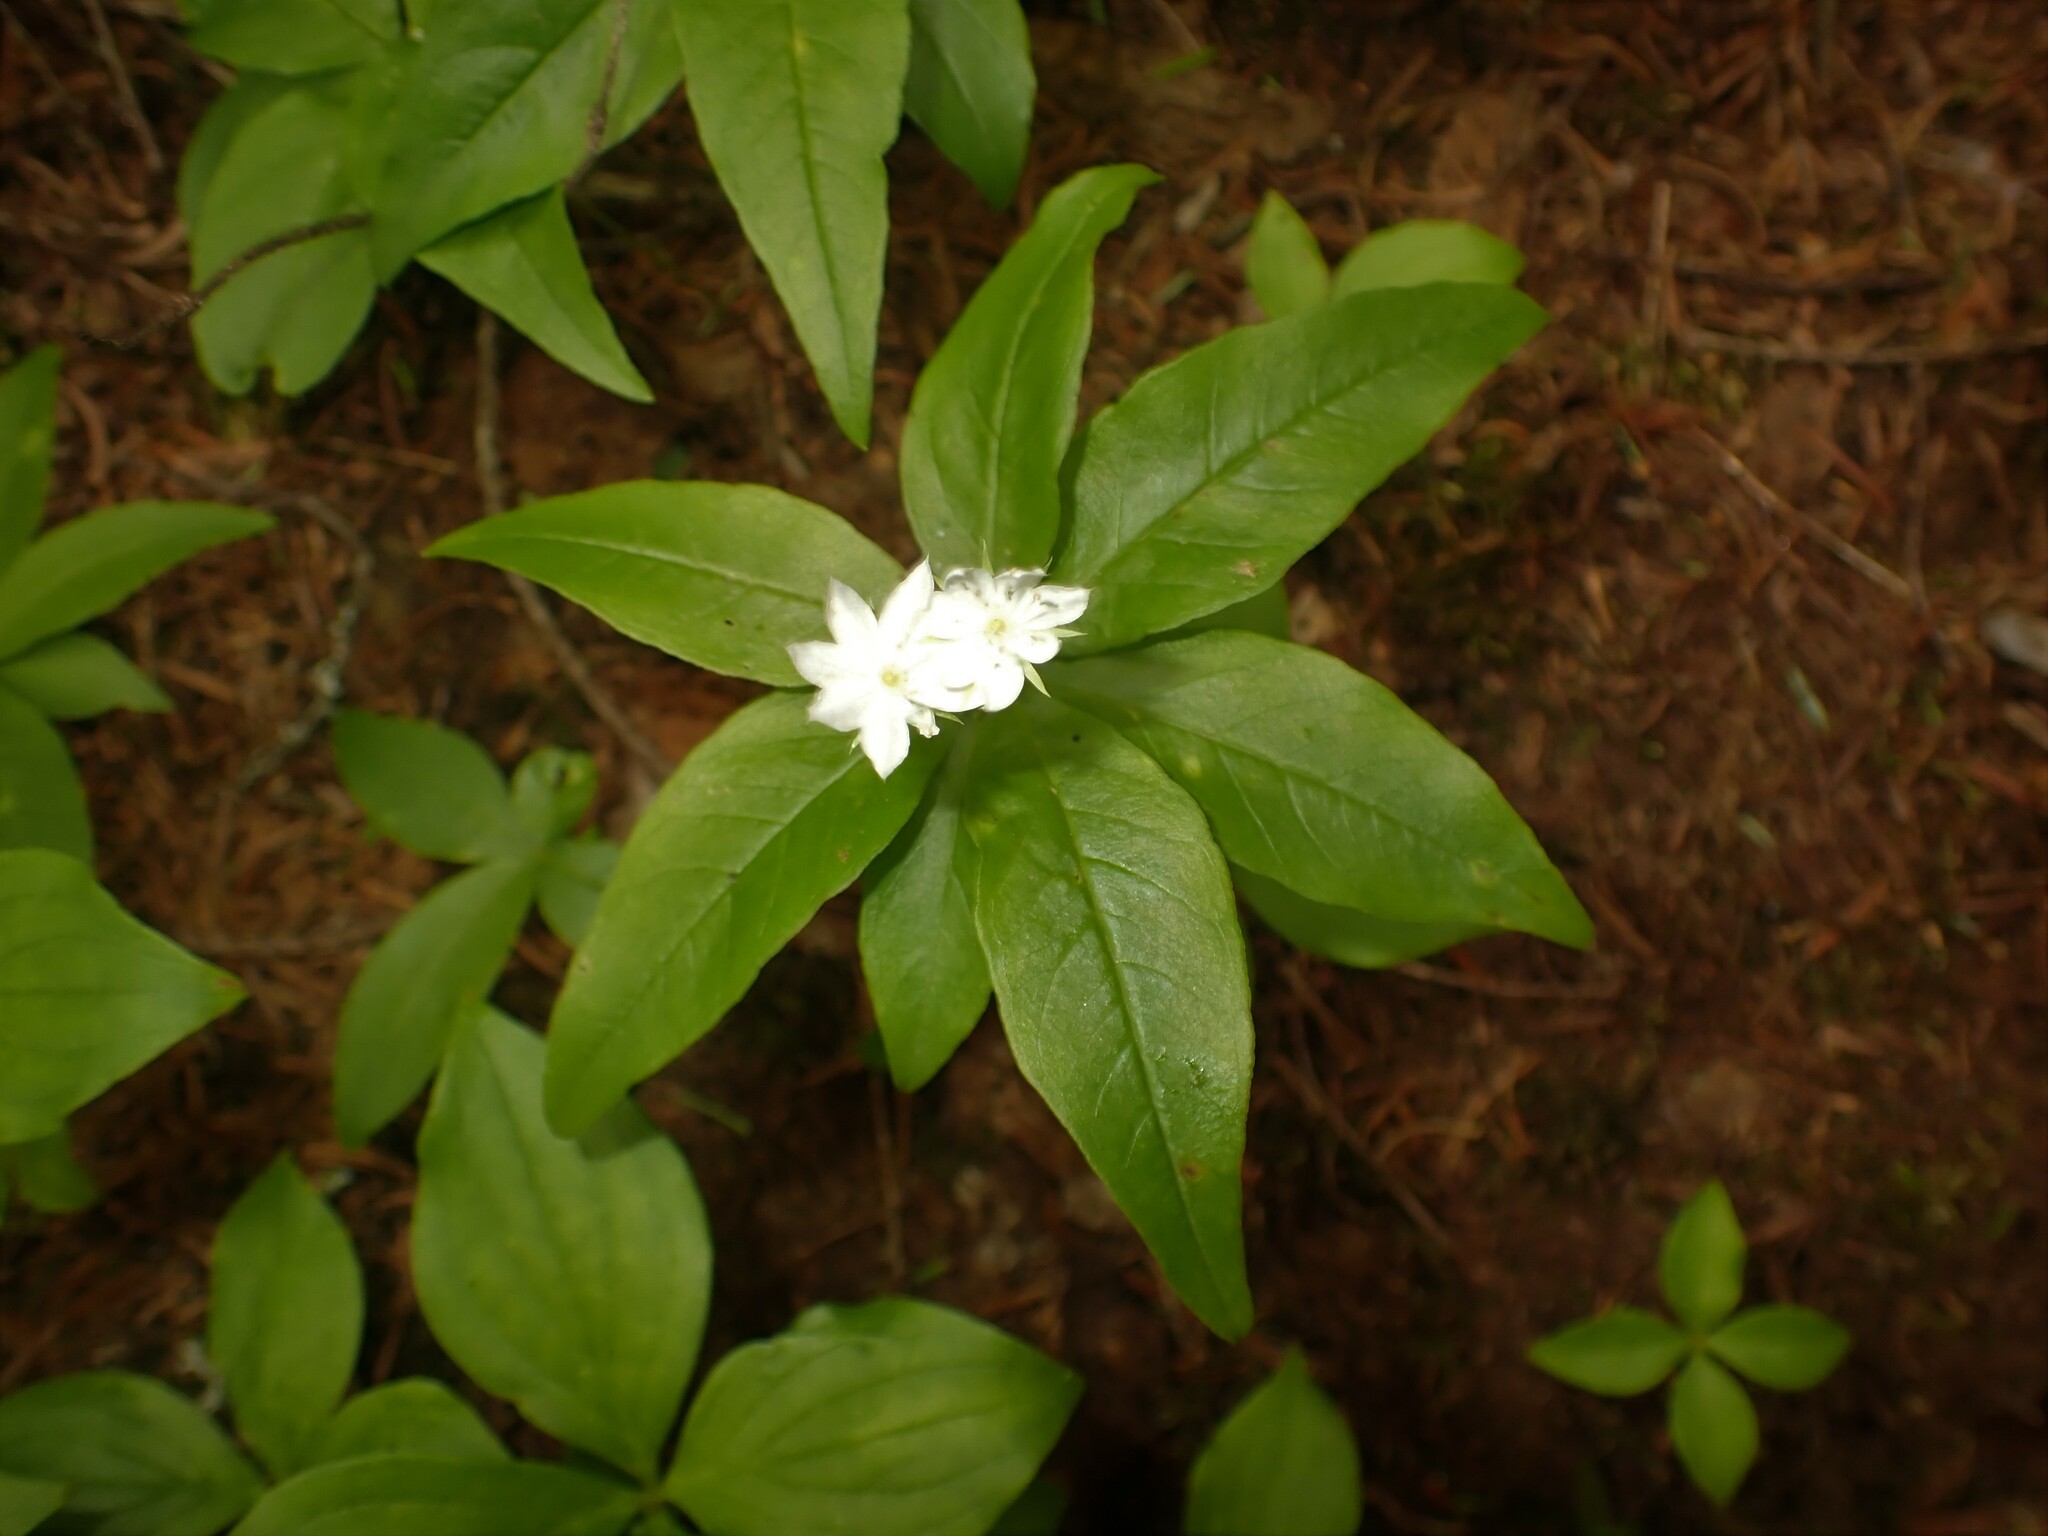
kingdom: Plantae
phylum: Tracheophyta
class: Magnoliopsida
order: Ericales
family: Primulaceae
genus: Lysimachia
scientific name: Lysimachia borealis
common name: American starflower
